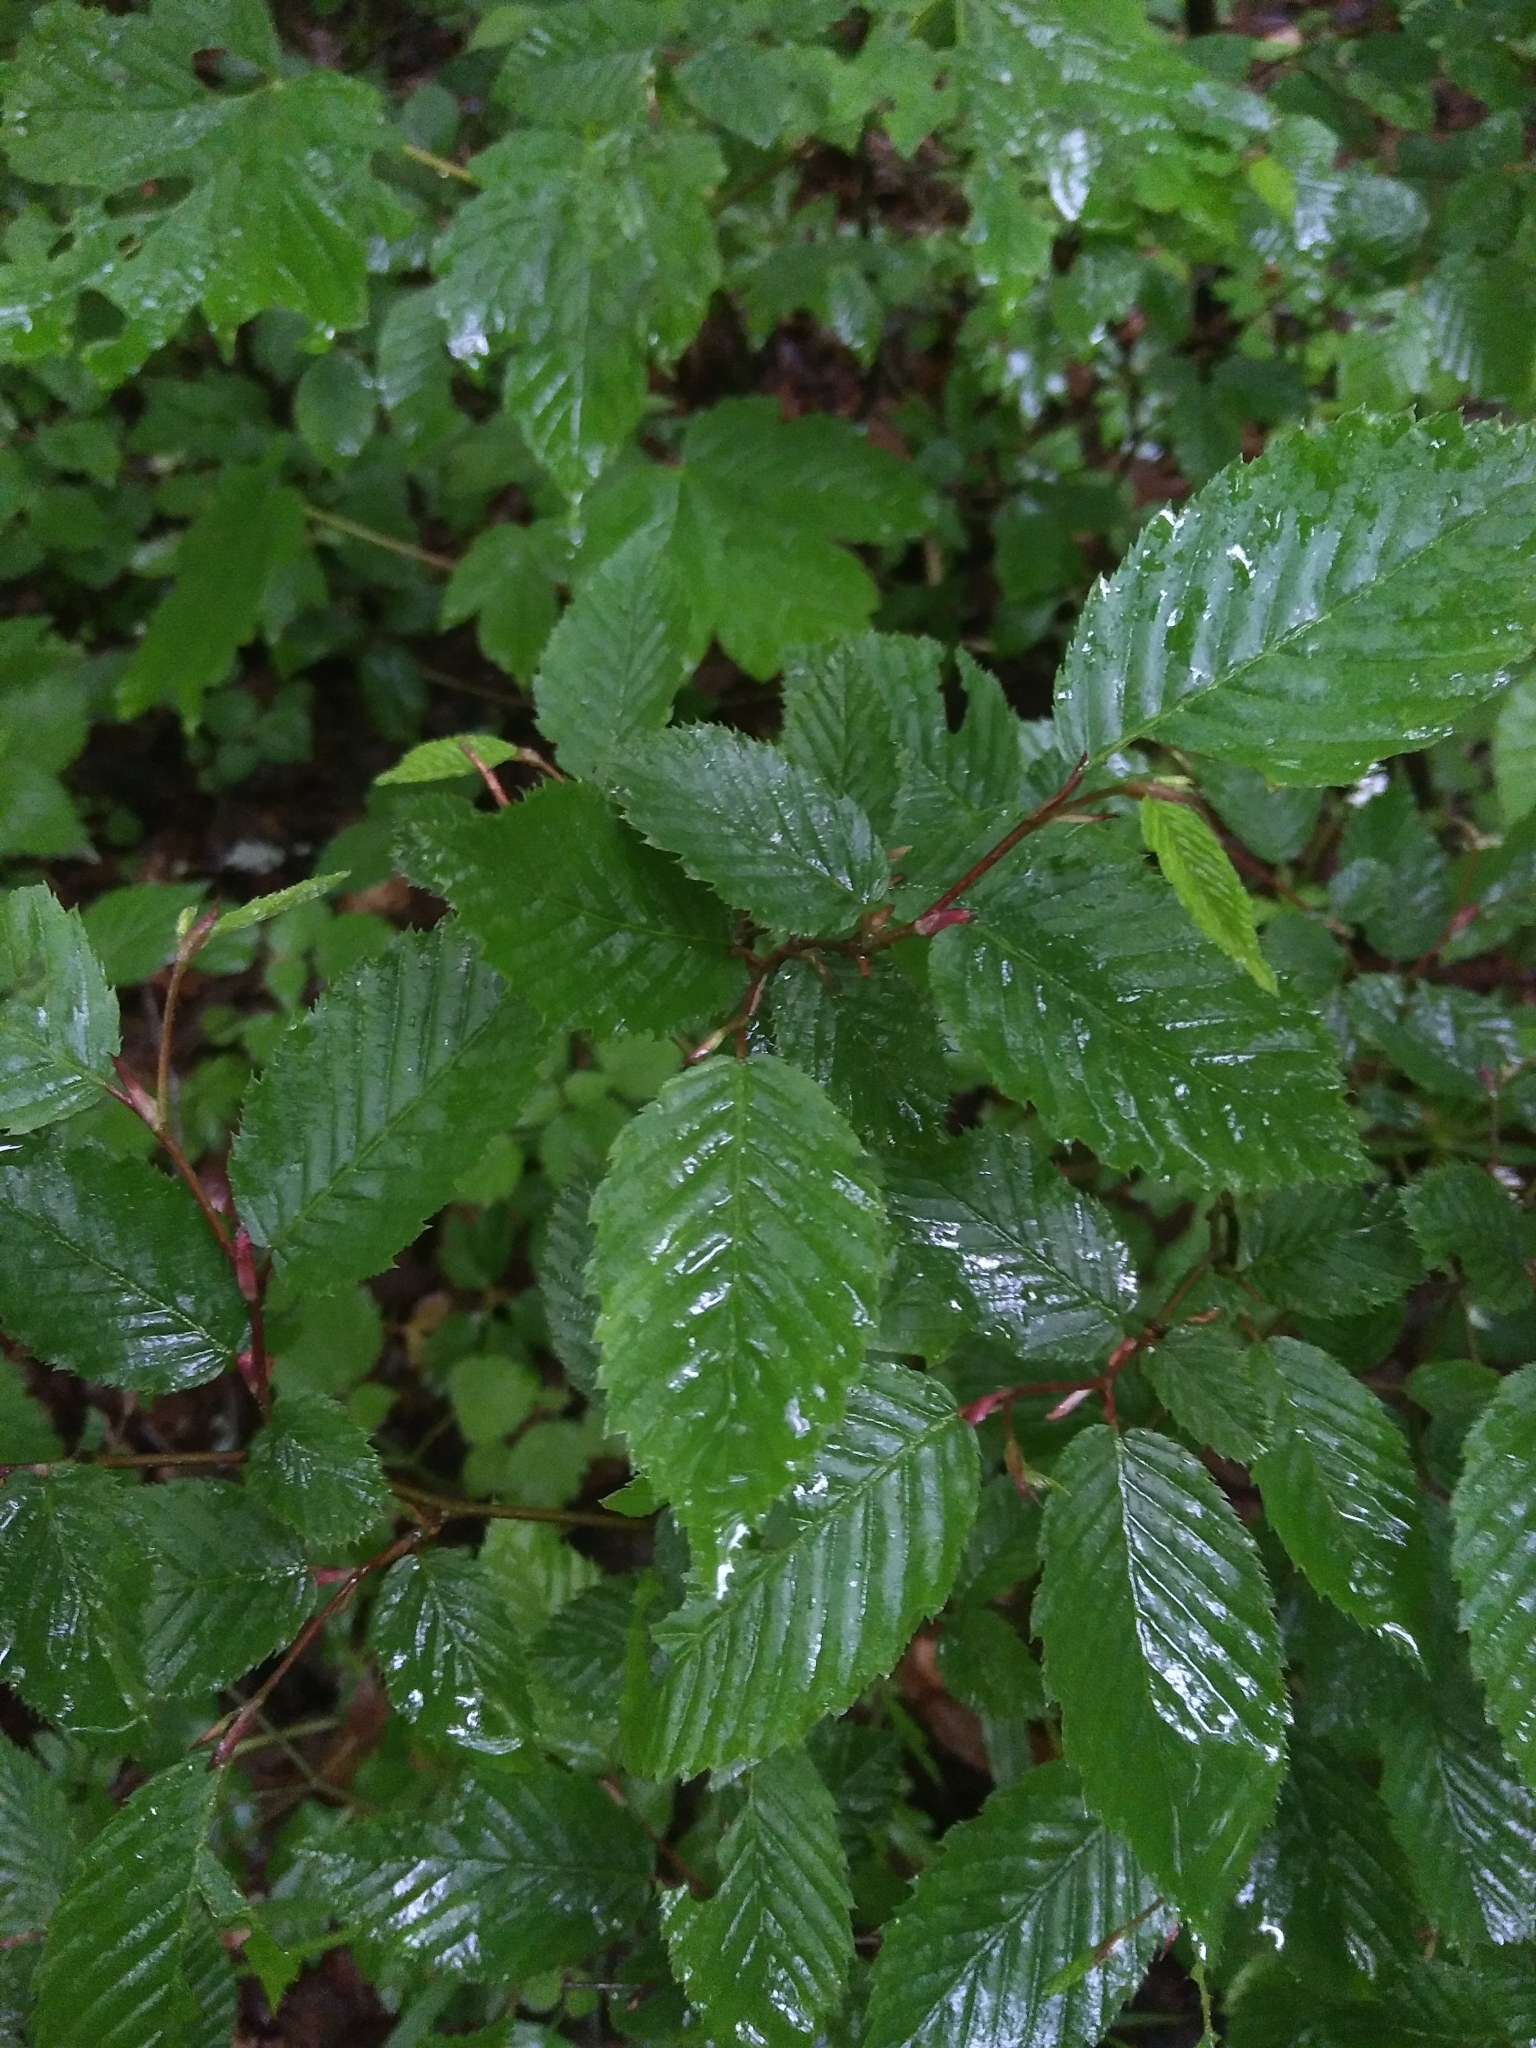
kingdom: Plantae
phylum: Tracheophyta
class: Magnoliopsida
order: Fagales
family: Betulaceae
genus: Carpinus
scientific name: Carpinus betulus
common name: Hornbeam
